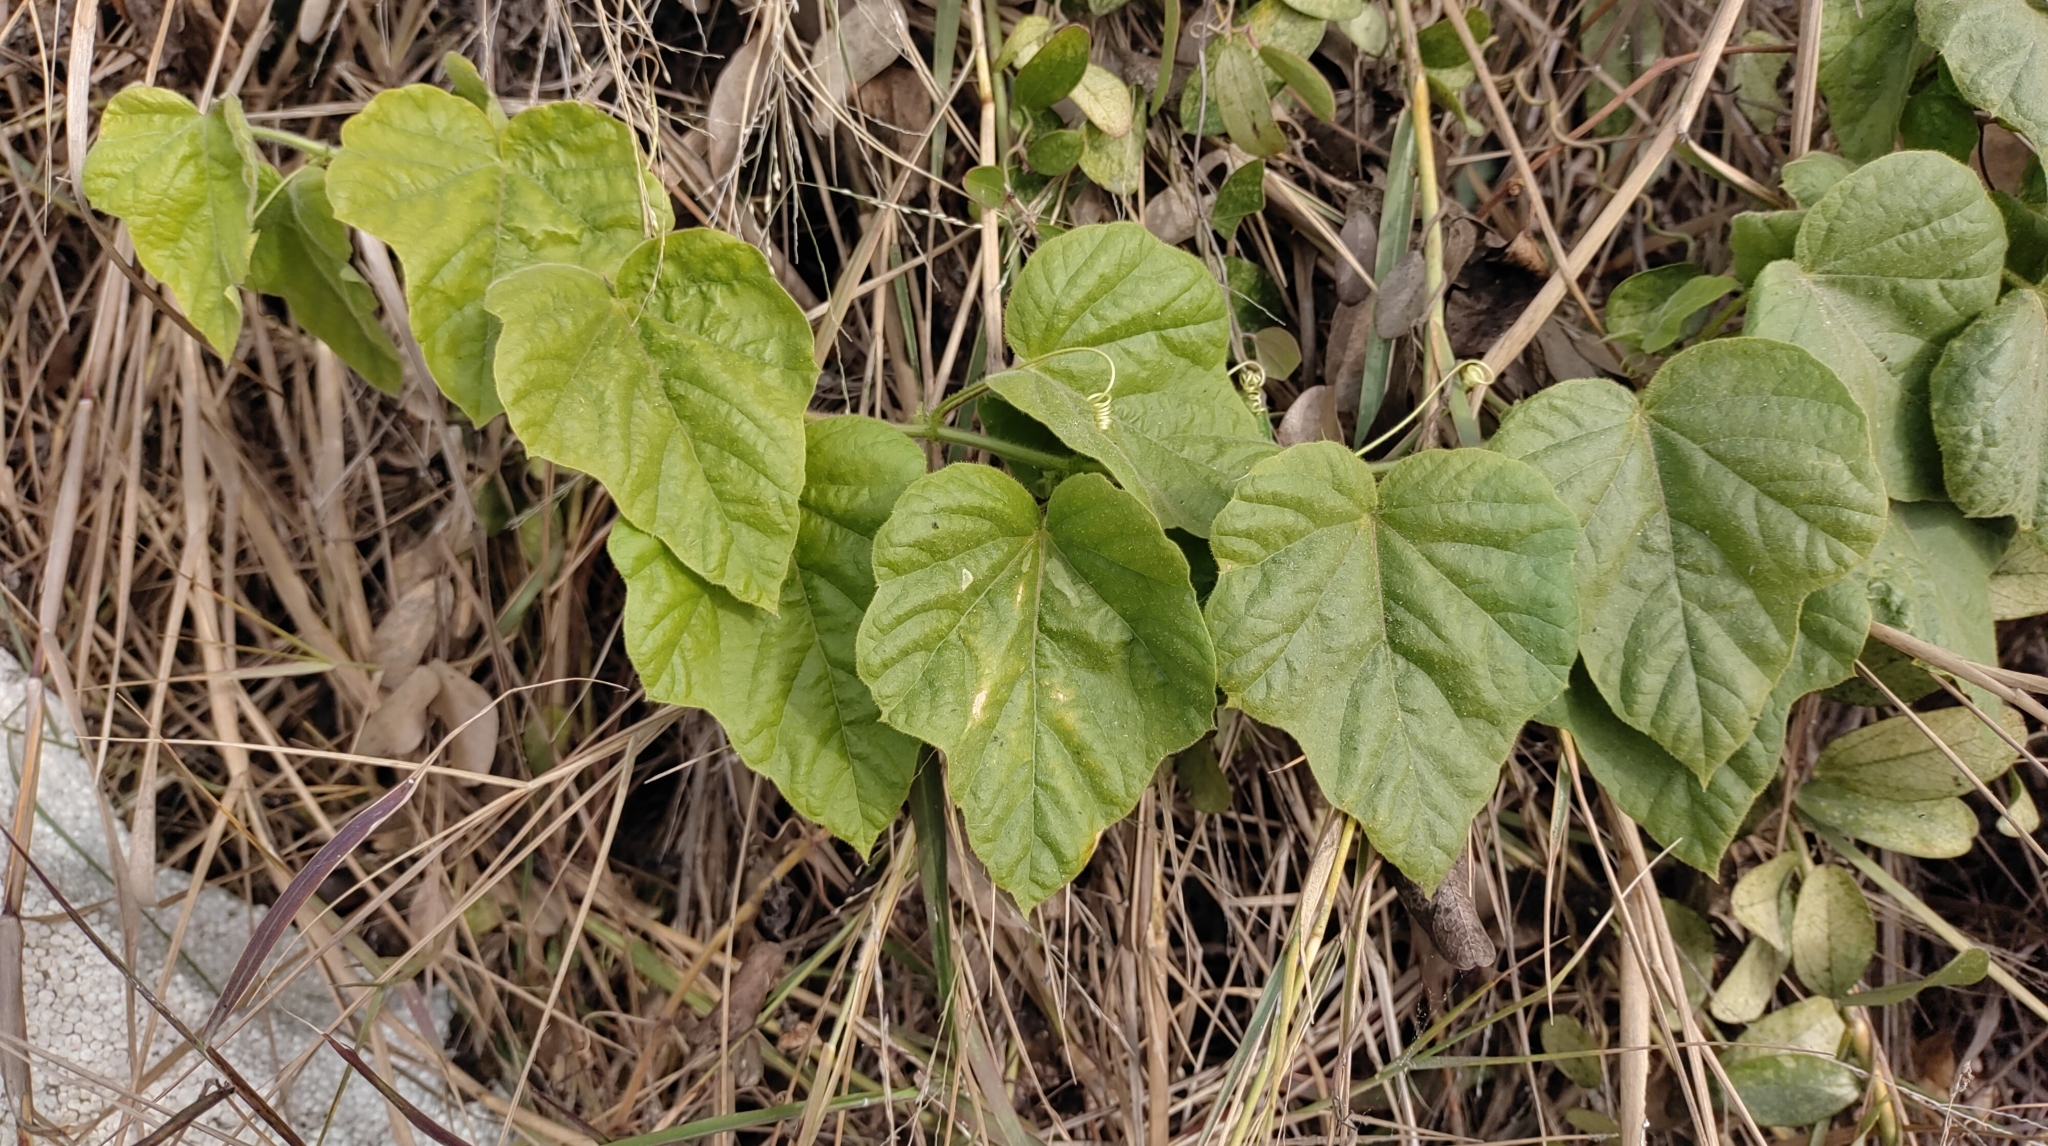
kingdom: Plantae
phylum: Tracheophyta
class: Magnoliopsida
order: Malpighiales
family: Passifloraceae
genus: Passiflora
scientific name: Passiflora vesicaria
